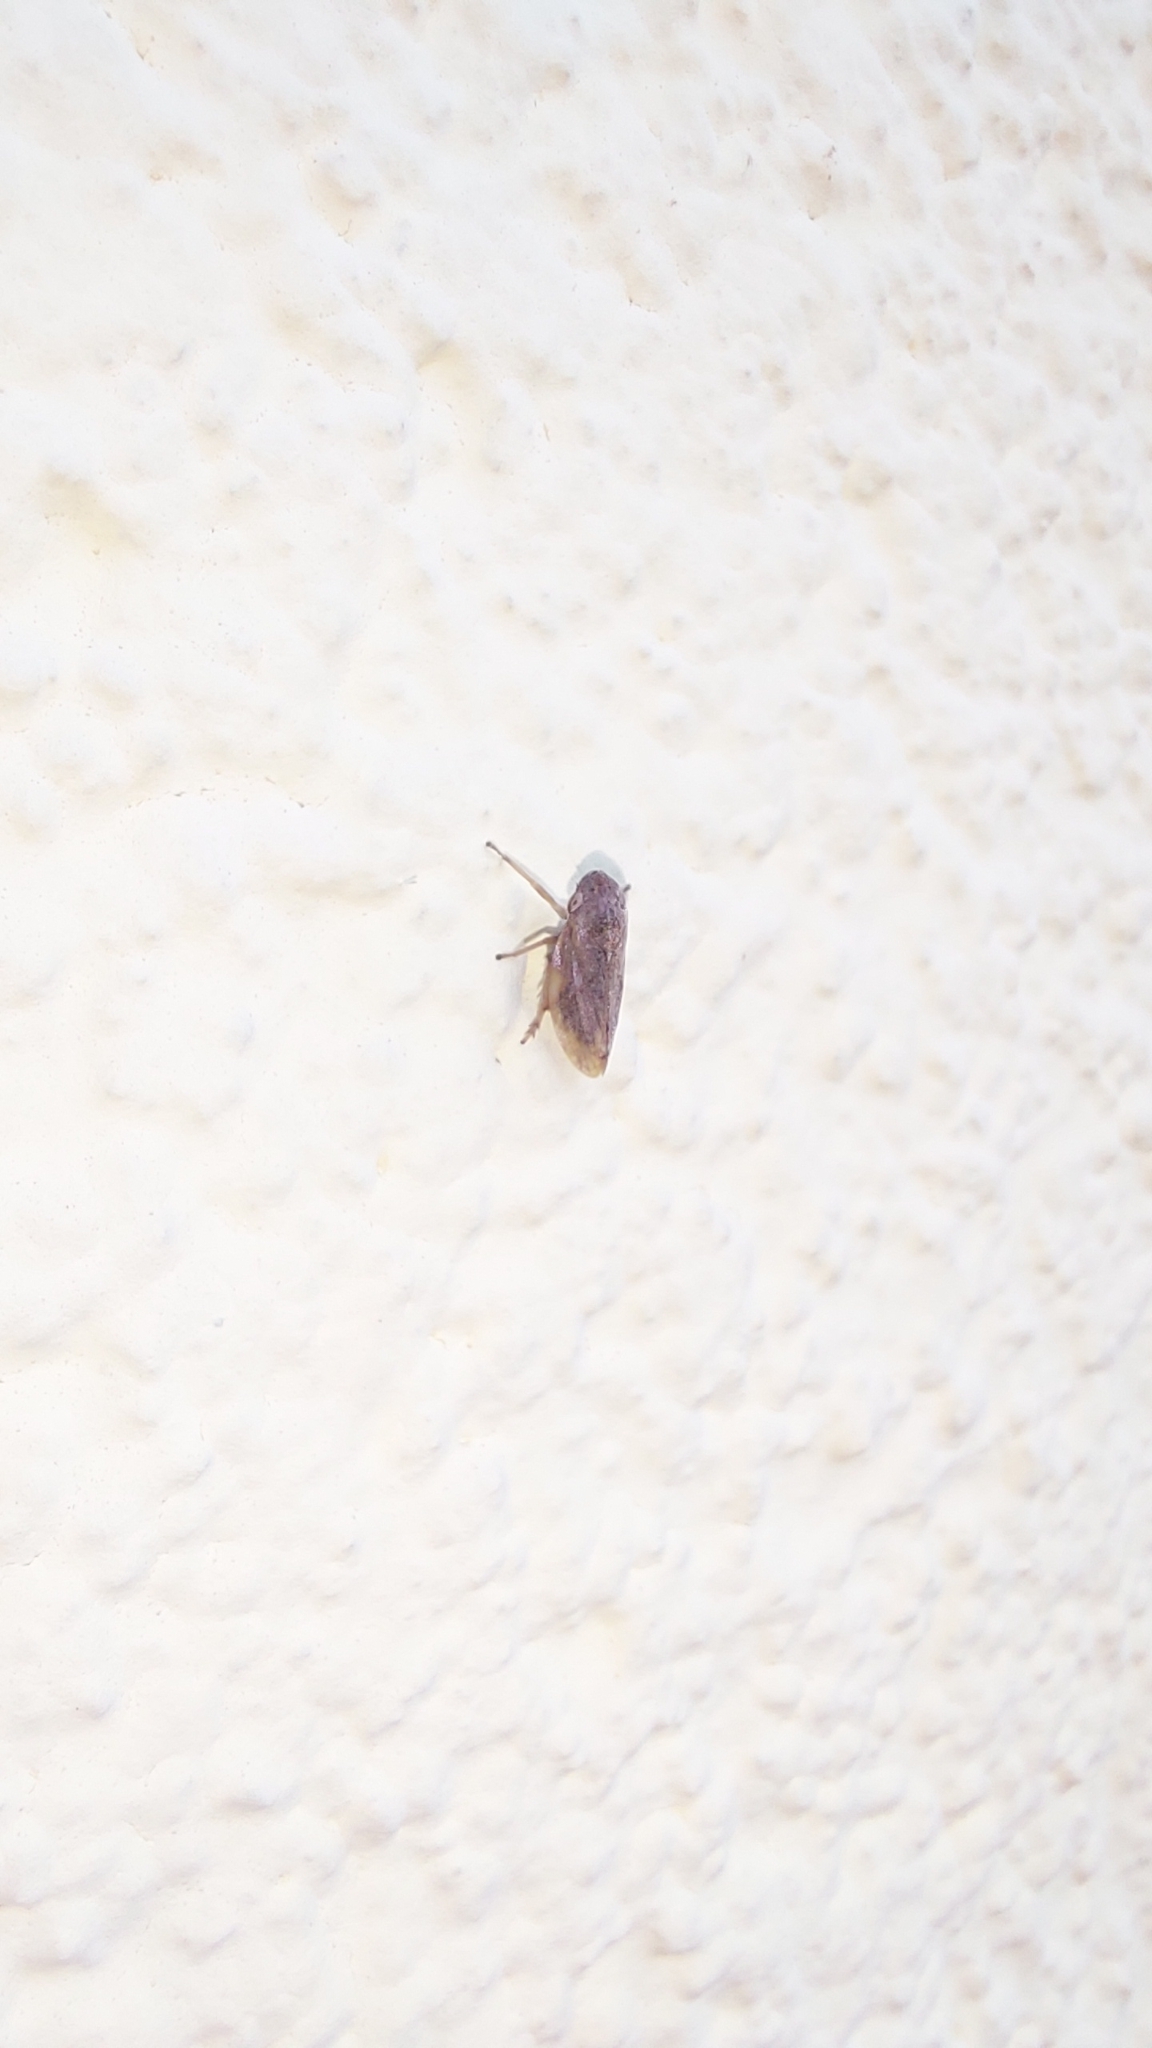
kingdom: Animalia
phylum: Arthropoda
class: Insecta
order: Hemiptera
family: Aphrophoridae
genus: Philaenus
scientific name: Philaenus spumarius
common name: Meadow spittlebug
